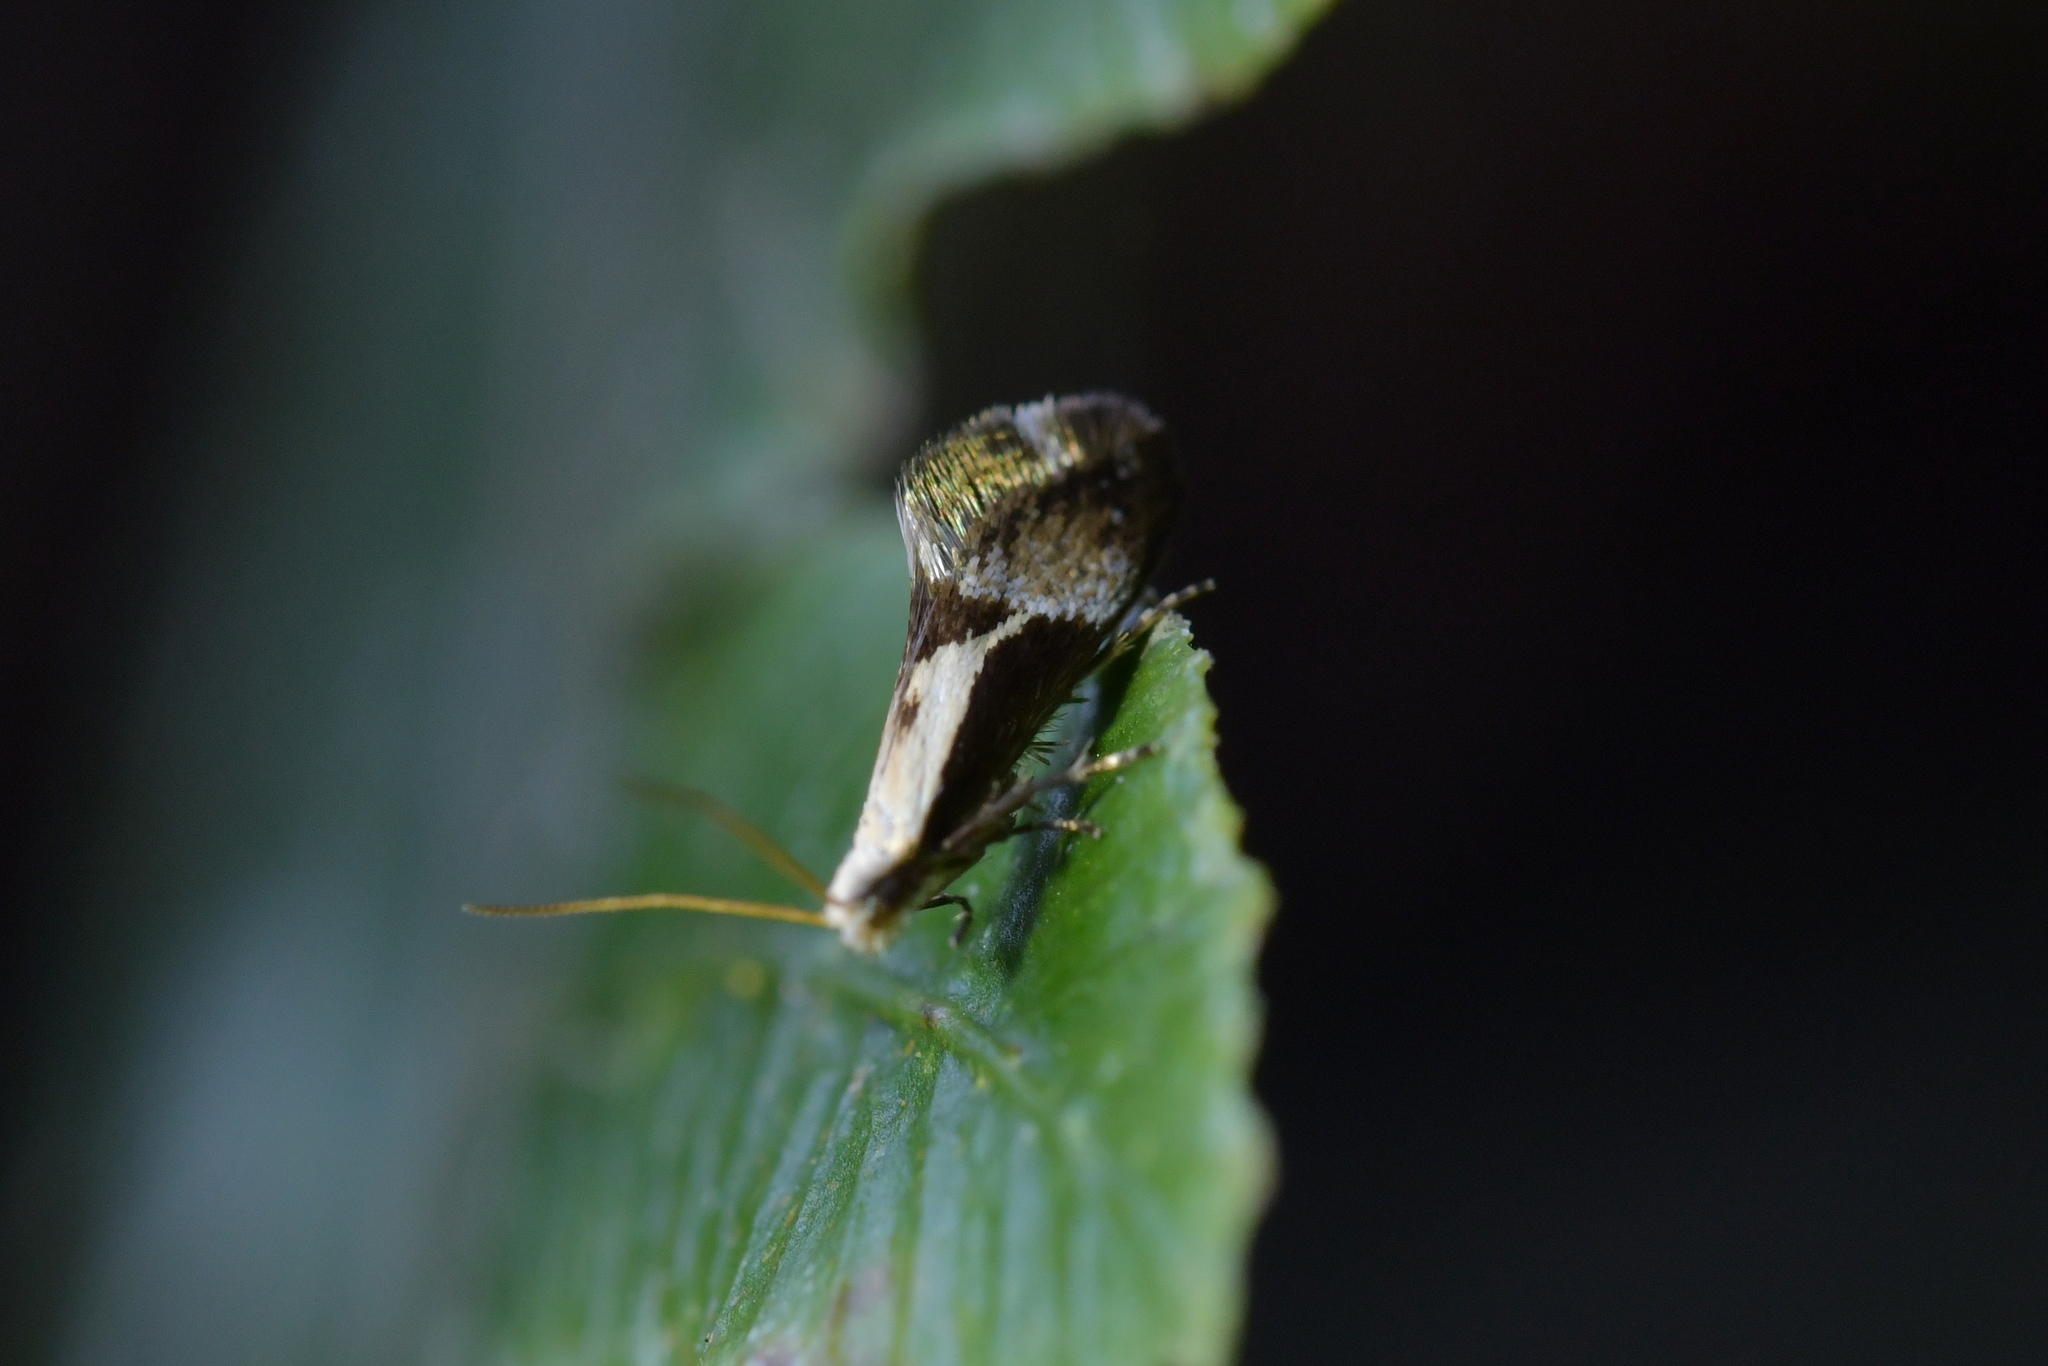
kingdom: Animalia
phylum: Arthropoda
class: Insecta
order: Lepidoptera
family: Mnesarchaeidae
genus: Mnesarchella
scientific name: Mnesarchella fusilella
